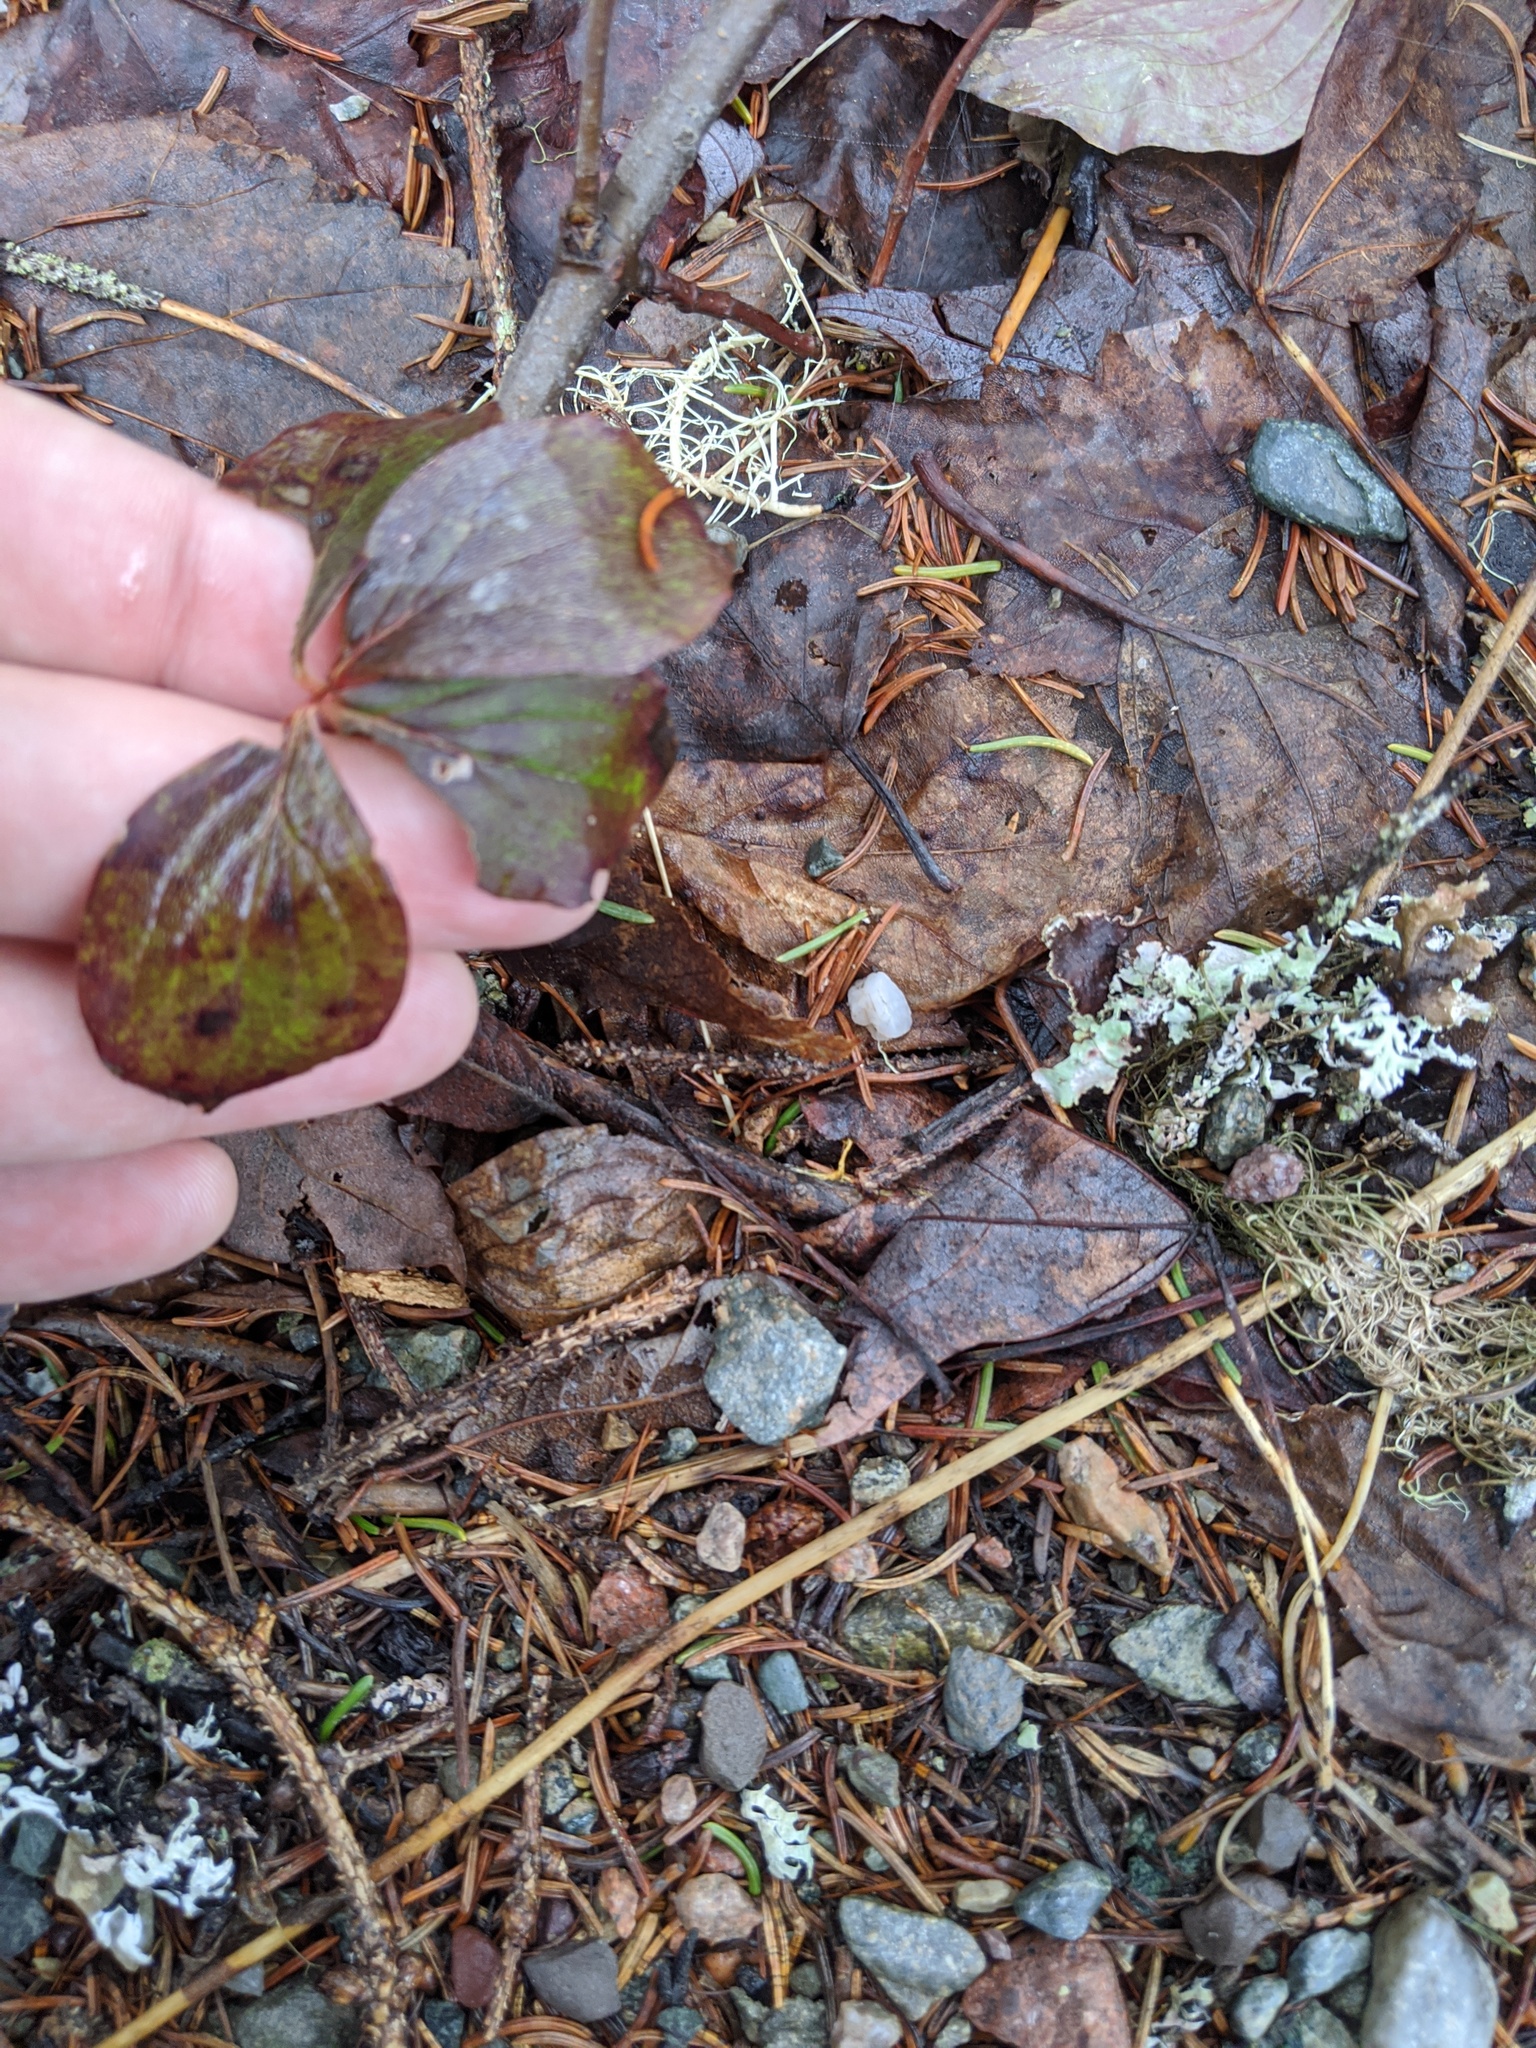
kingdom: Plantae
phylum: Tracheophyta
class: Magnoliopsida
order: Cornales
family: Cornaceae
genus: Cornus
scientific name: Cornus canadensis
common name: Creeping dogwood
